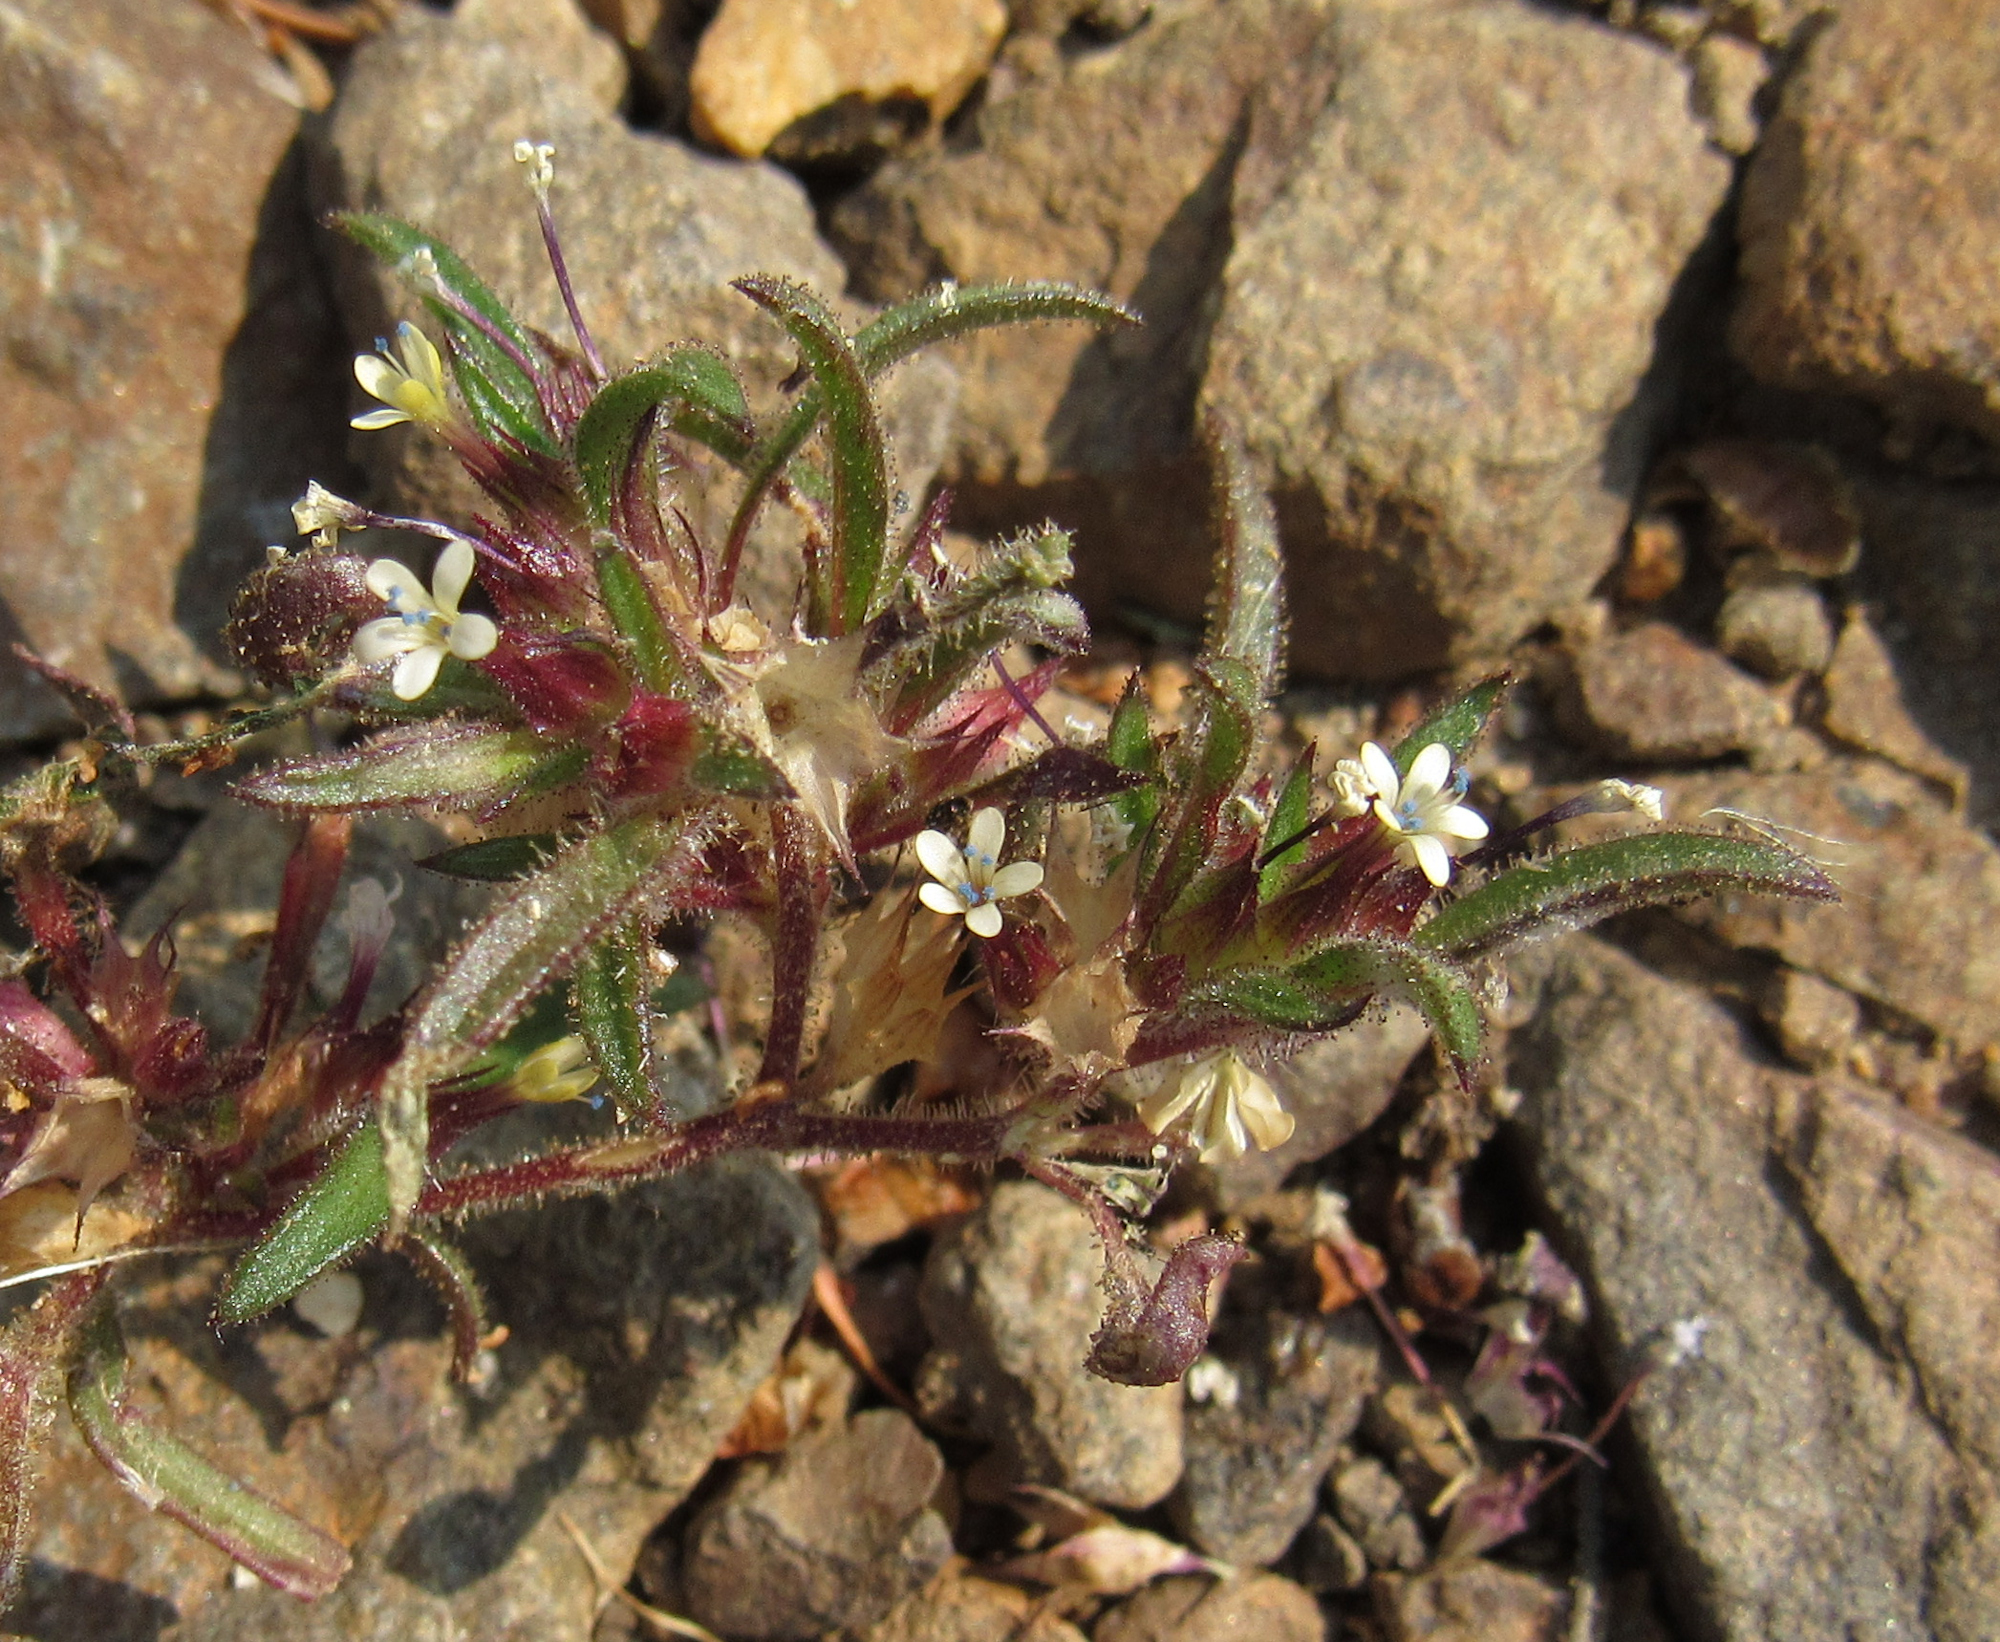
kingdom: Plantae
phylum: Tracheophyta
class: Magnoliopsida
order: Ericales
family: Polemoniaceae
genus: Collomia
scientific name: Collomia tinctoria
